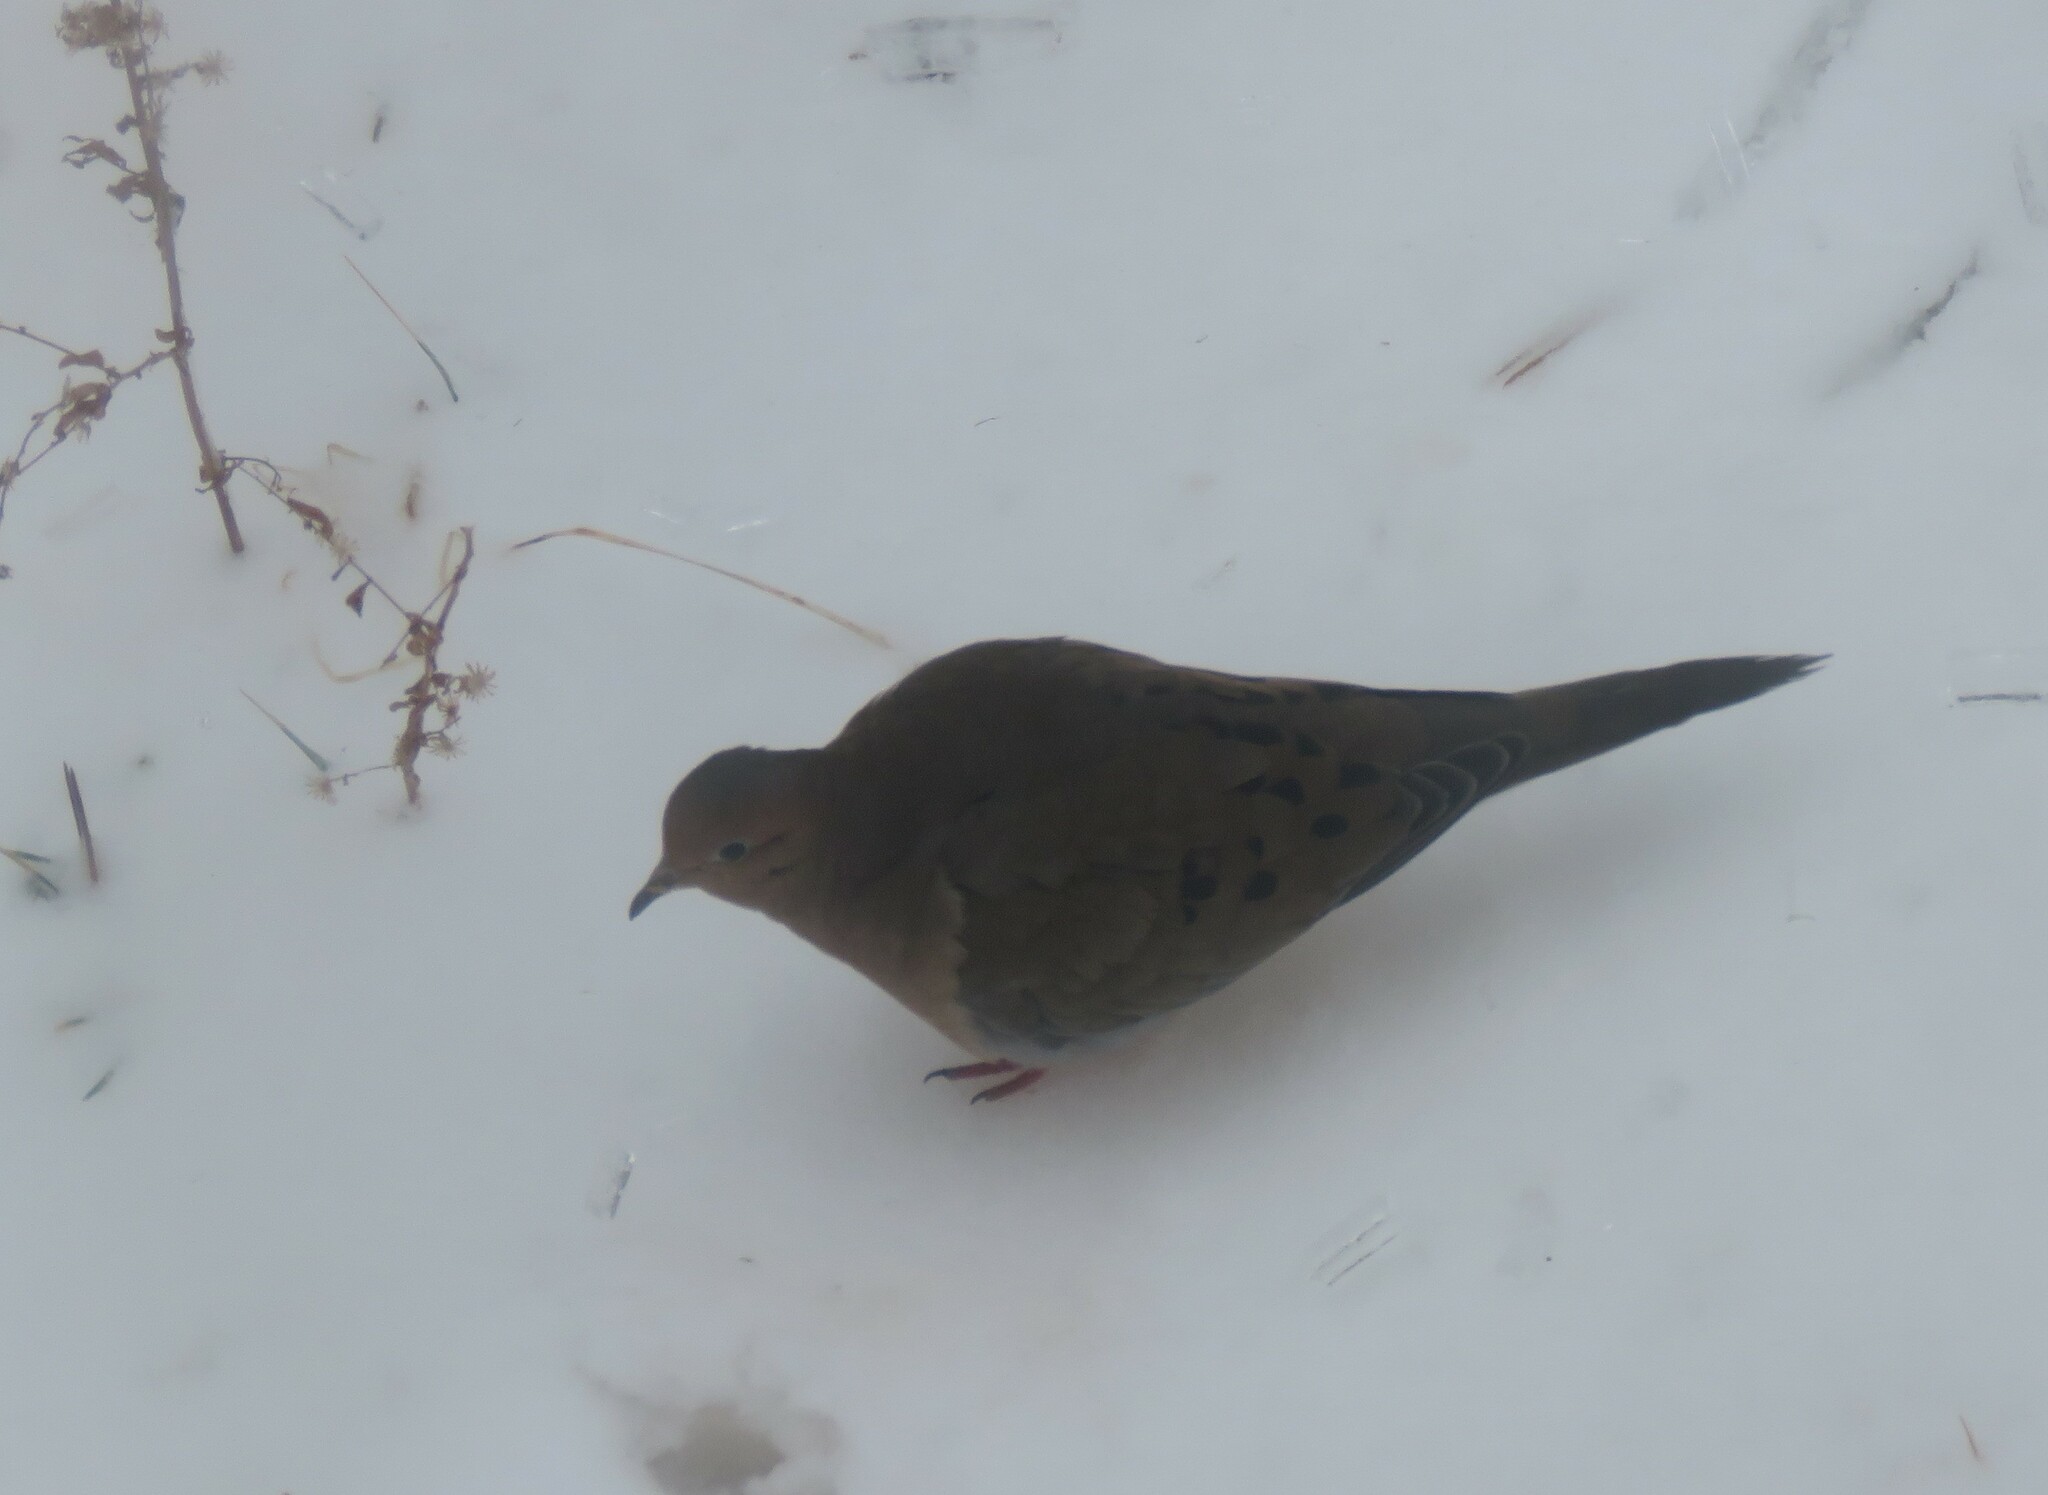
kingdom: Animalia
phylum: Chordata
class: Aves
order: Columbiformes
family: Columbidae
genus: Zenaida
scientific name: Zenaida macroura
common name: Mourning dove
